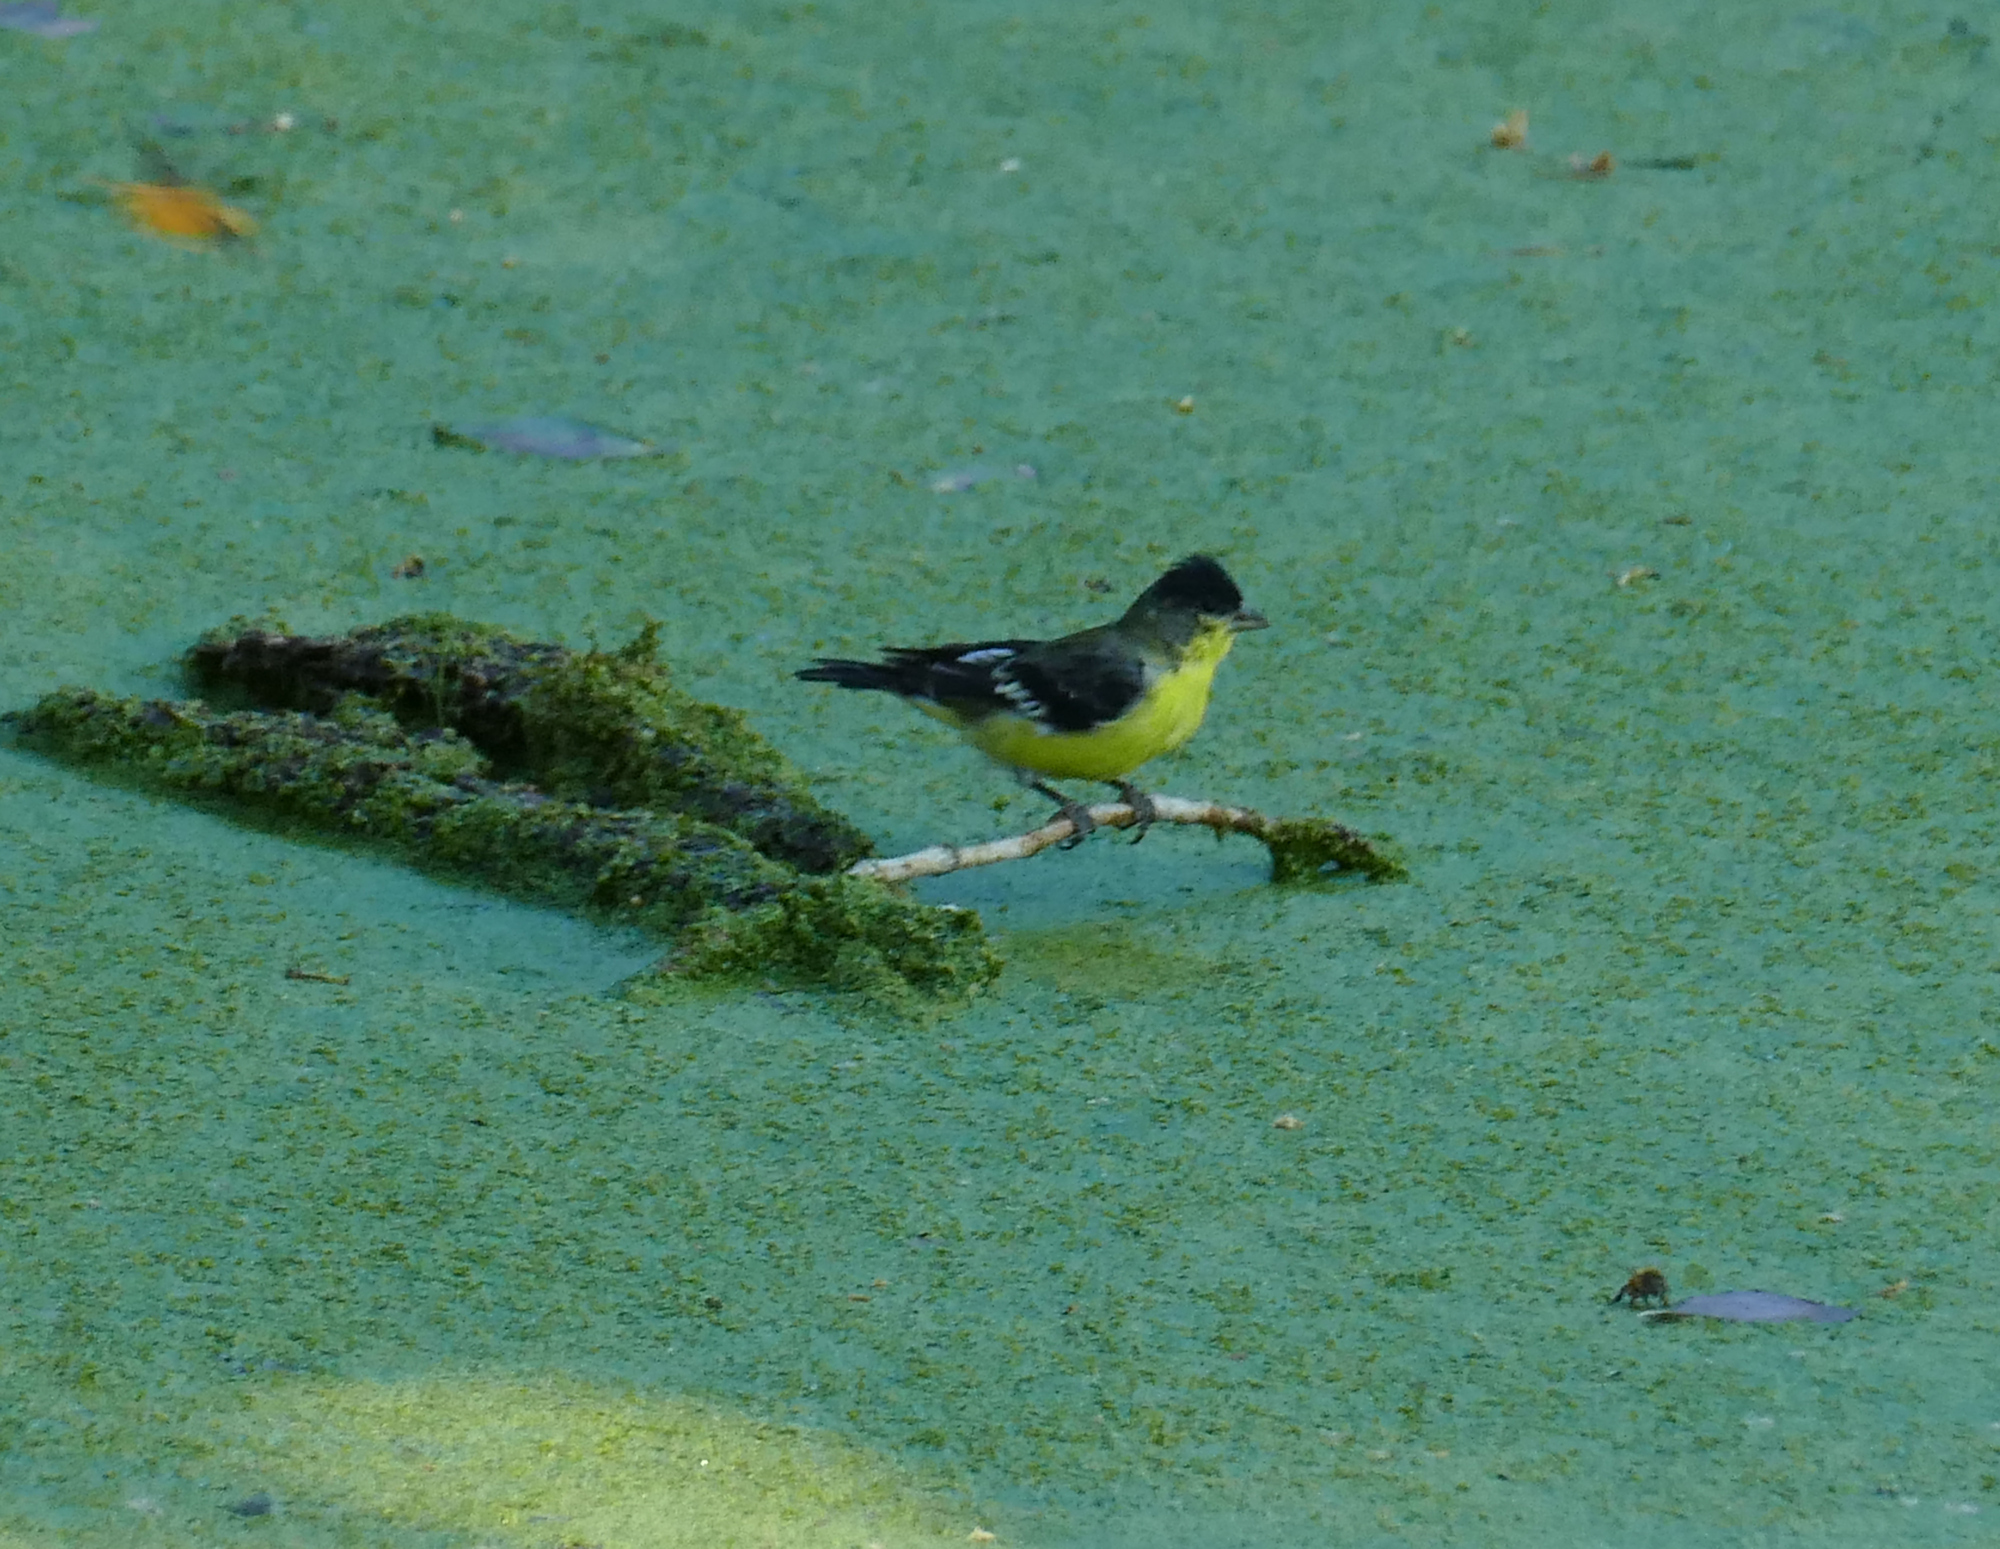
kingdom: Animalia
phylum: Chordata
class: Aves
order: Passeriformes
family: Fringillidae
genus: Spinus
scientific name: Spinus psaltria
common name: Lesser goldfinch
